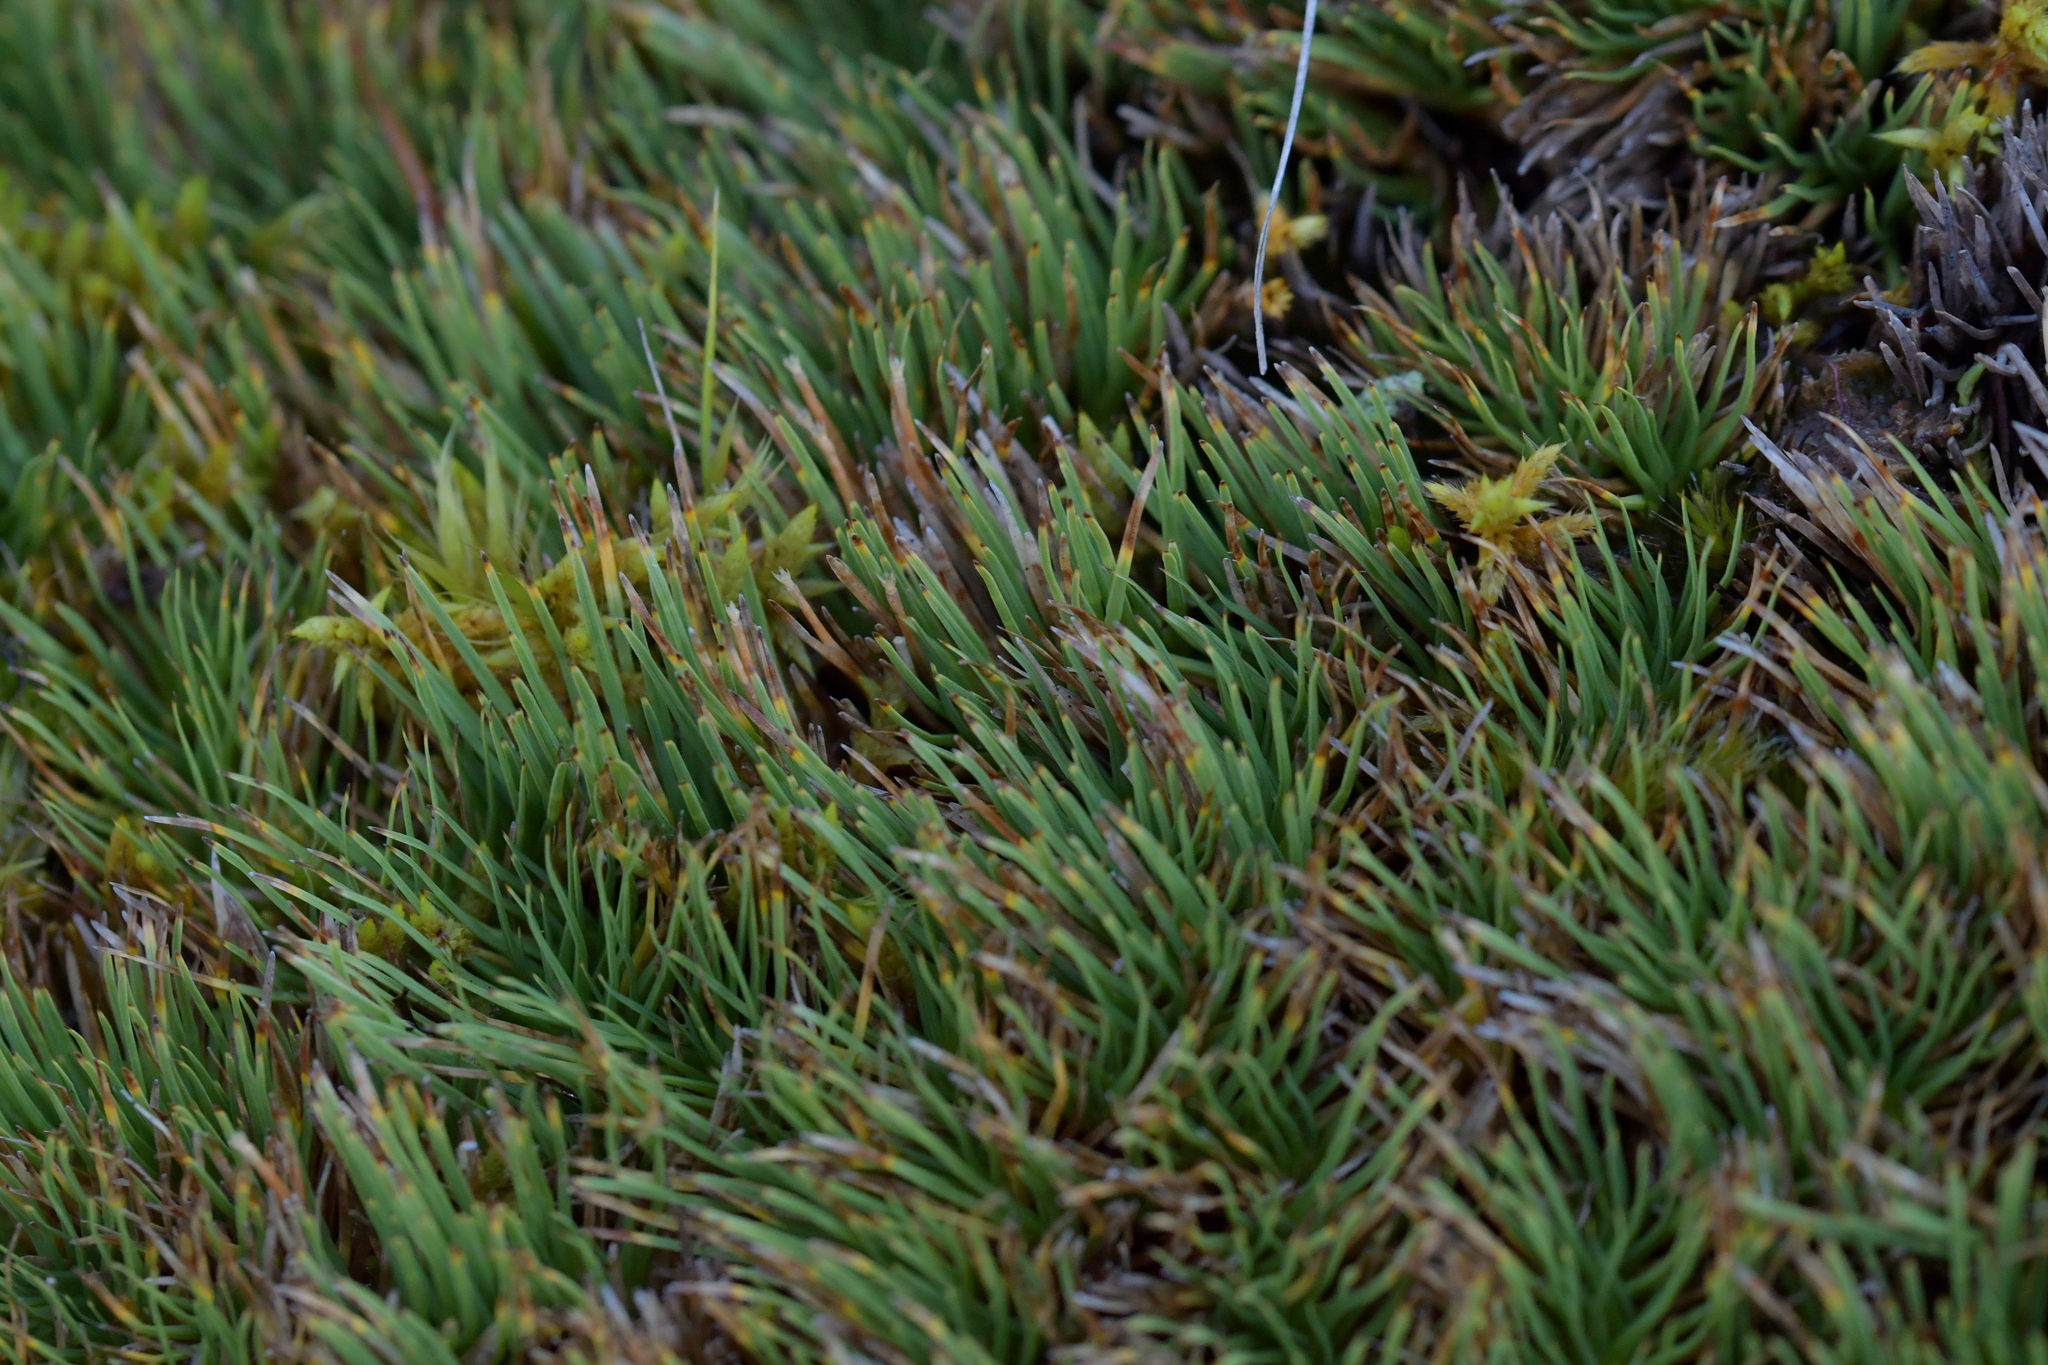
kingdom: Plantae
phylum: Tracheophyta
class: Liliopsida
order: Poales
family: Cyperaceae
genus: Oreobolus
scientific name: Oreobolus pectinatus
